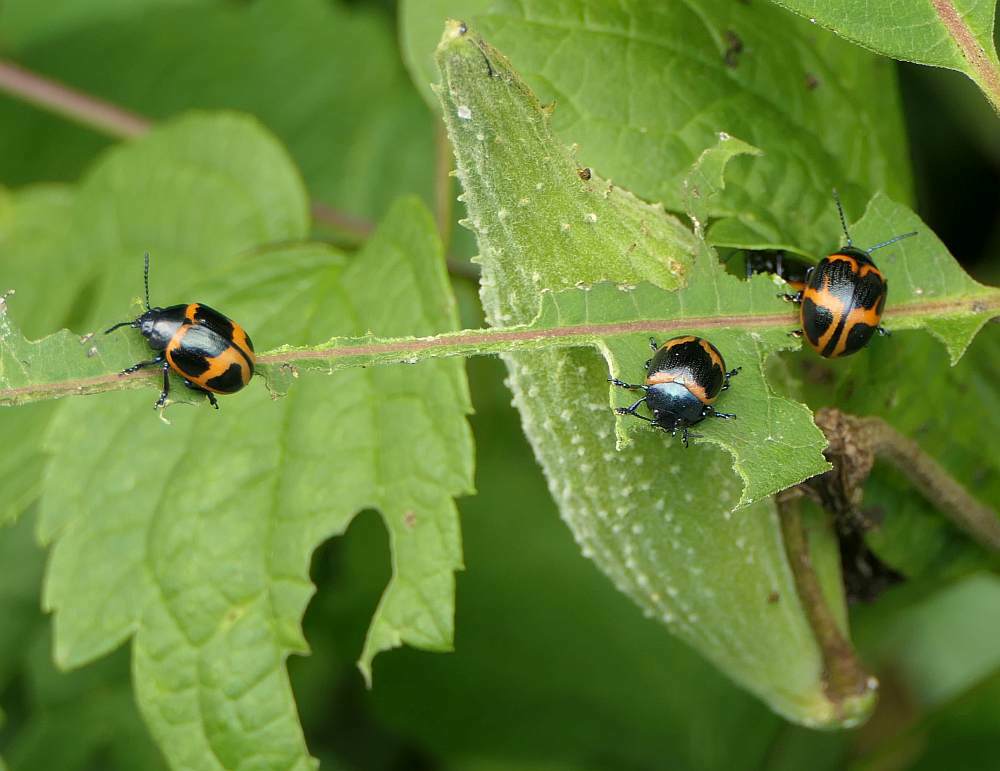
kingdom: Animalia
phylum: Arthropoda
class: Insecta
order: Coleoptera
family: Chrysomelidae
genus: Labidomera
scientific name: Labidomera clivicollis
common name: Swamp milkweed leaf beetle
